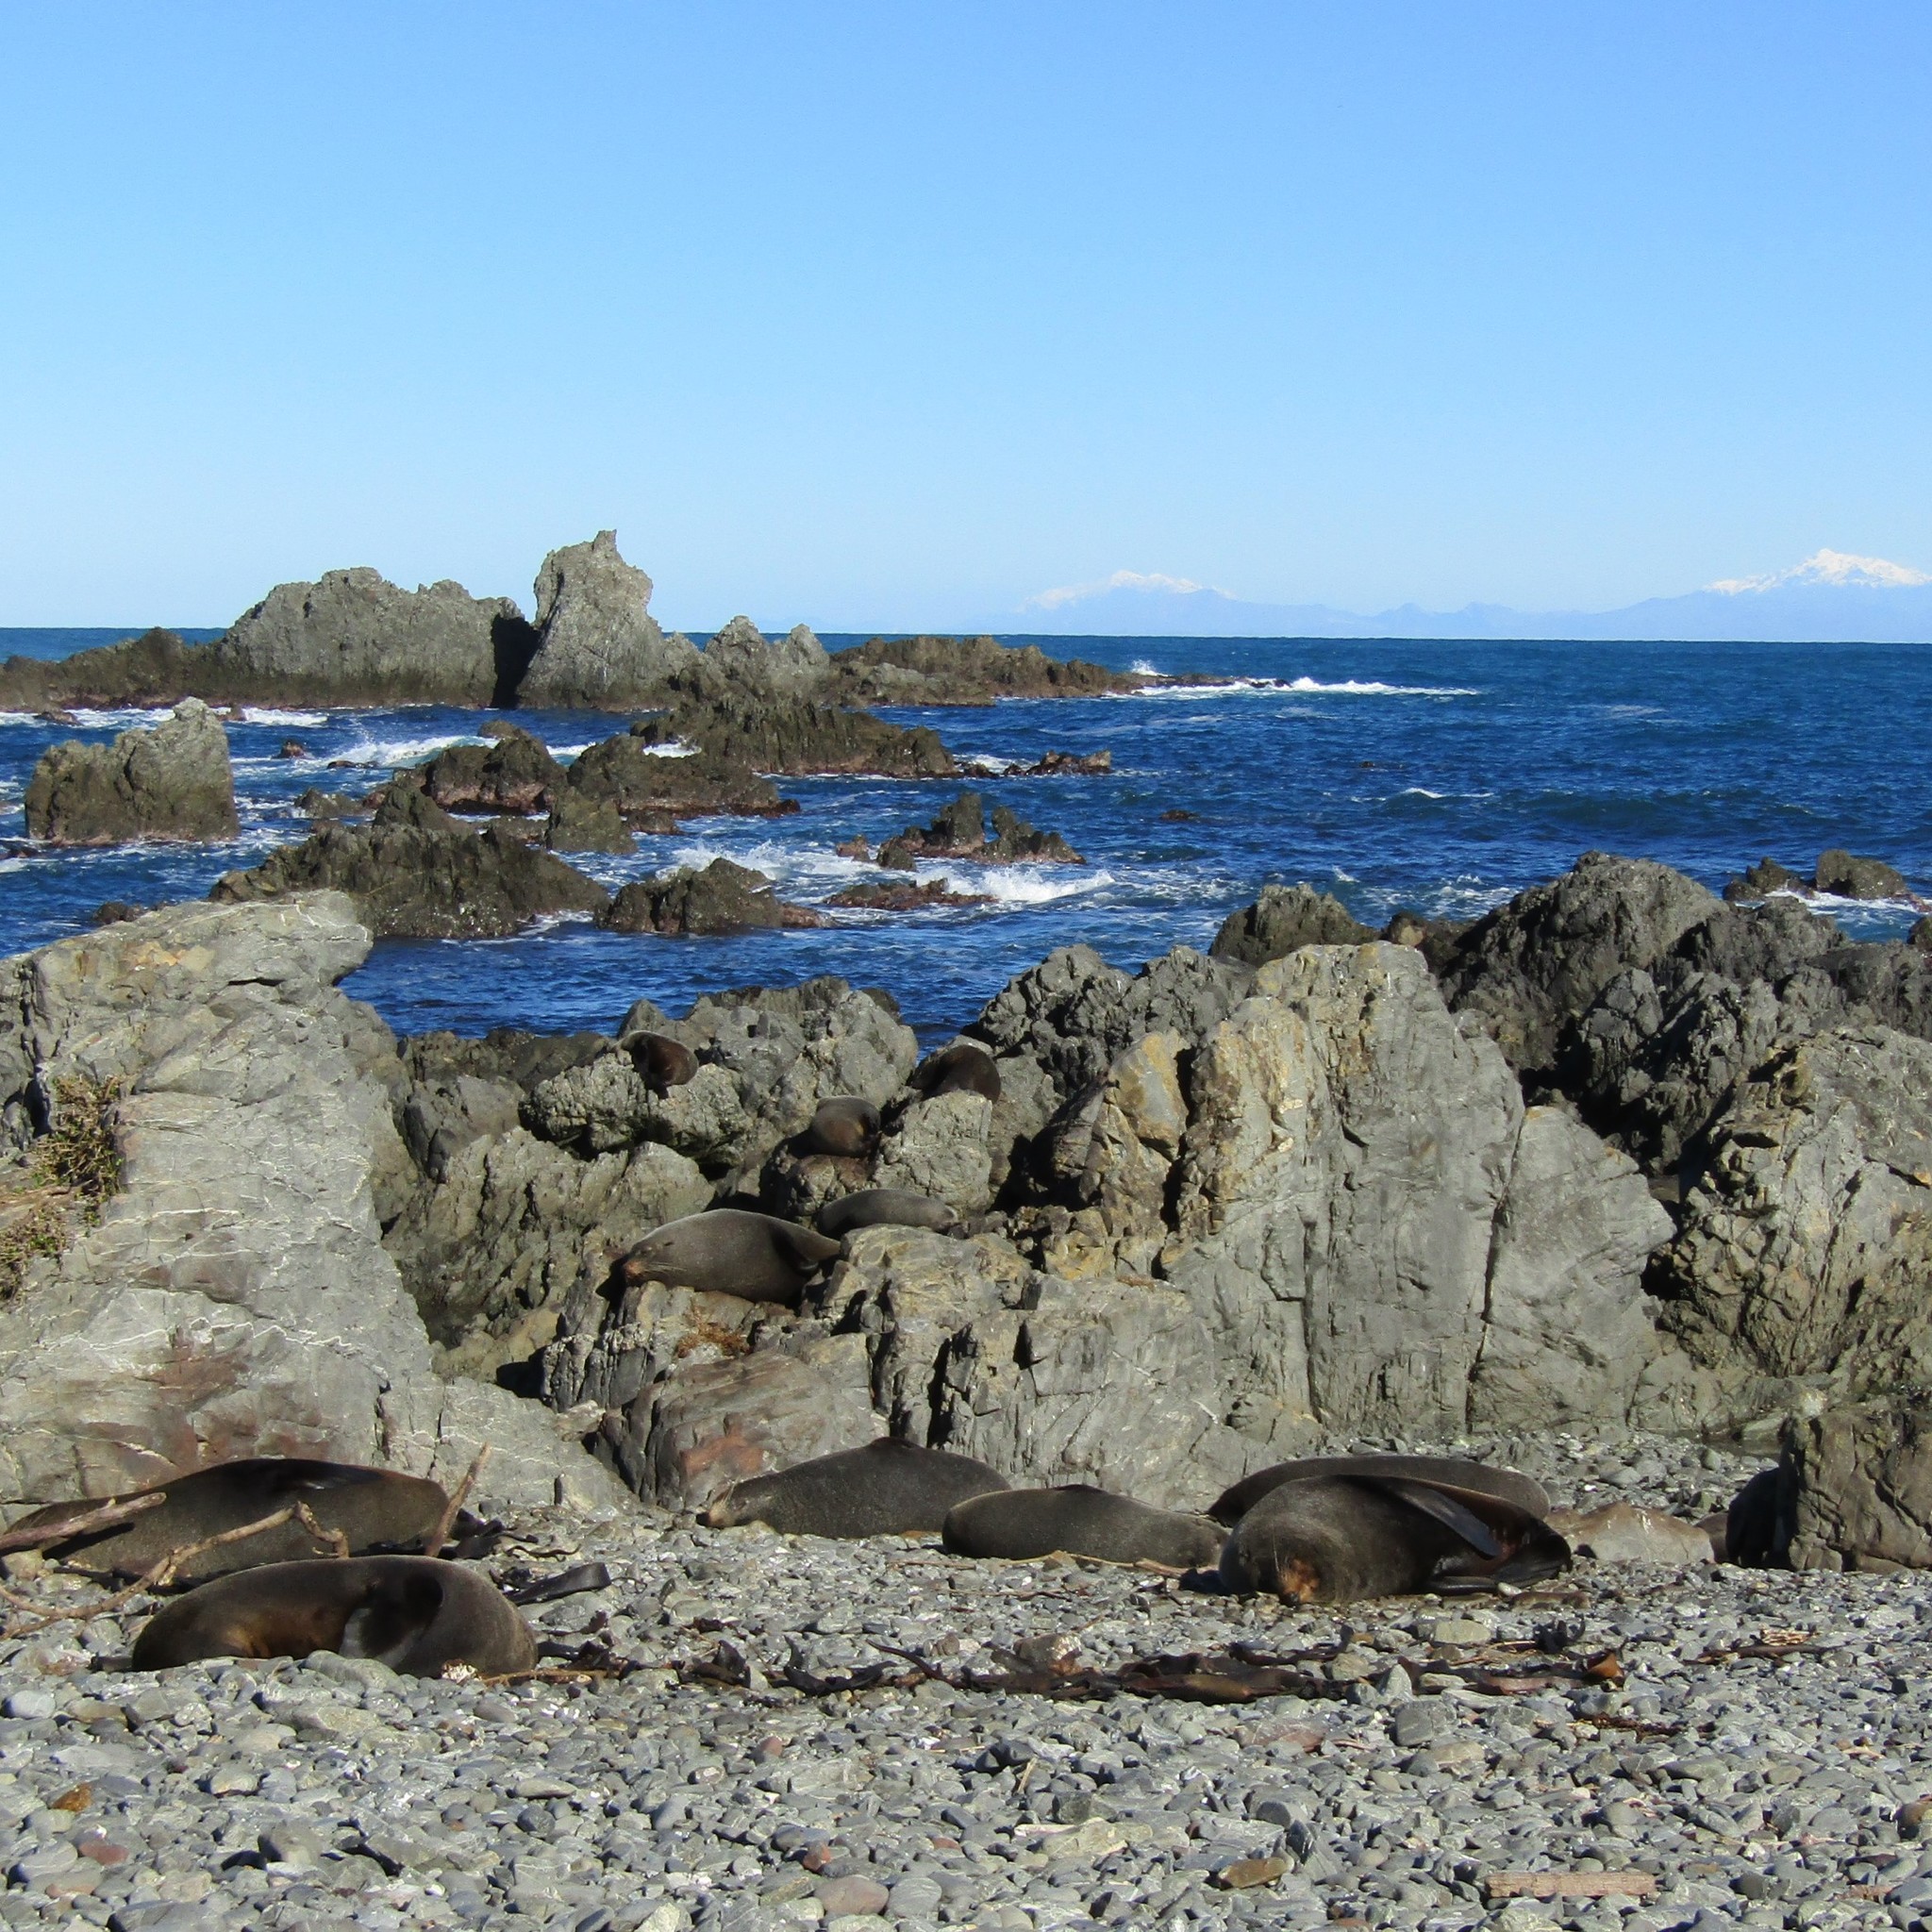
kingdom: Animalia
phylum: Chordata
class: Mammalia
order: Carnivora
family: Otariidae
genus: Arctocephalus
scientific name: Arctocephalus forsteri
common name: New zealand fur seal
